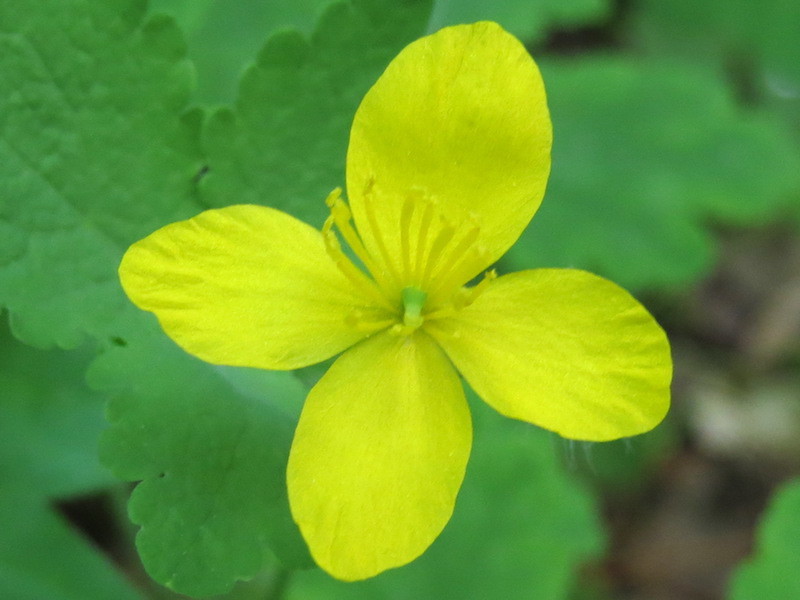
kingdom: Plantae
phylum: Tracheophyta
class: Magnoliopsida
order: Ranunculales
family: Papaveraceae
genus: Chelidonium
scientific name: Chelidonium majus
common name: Greater celandine
